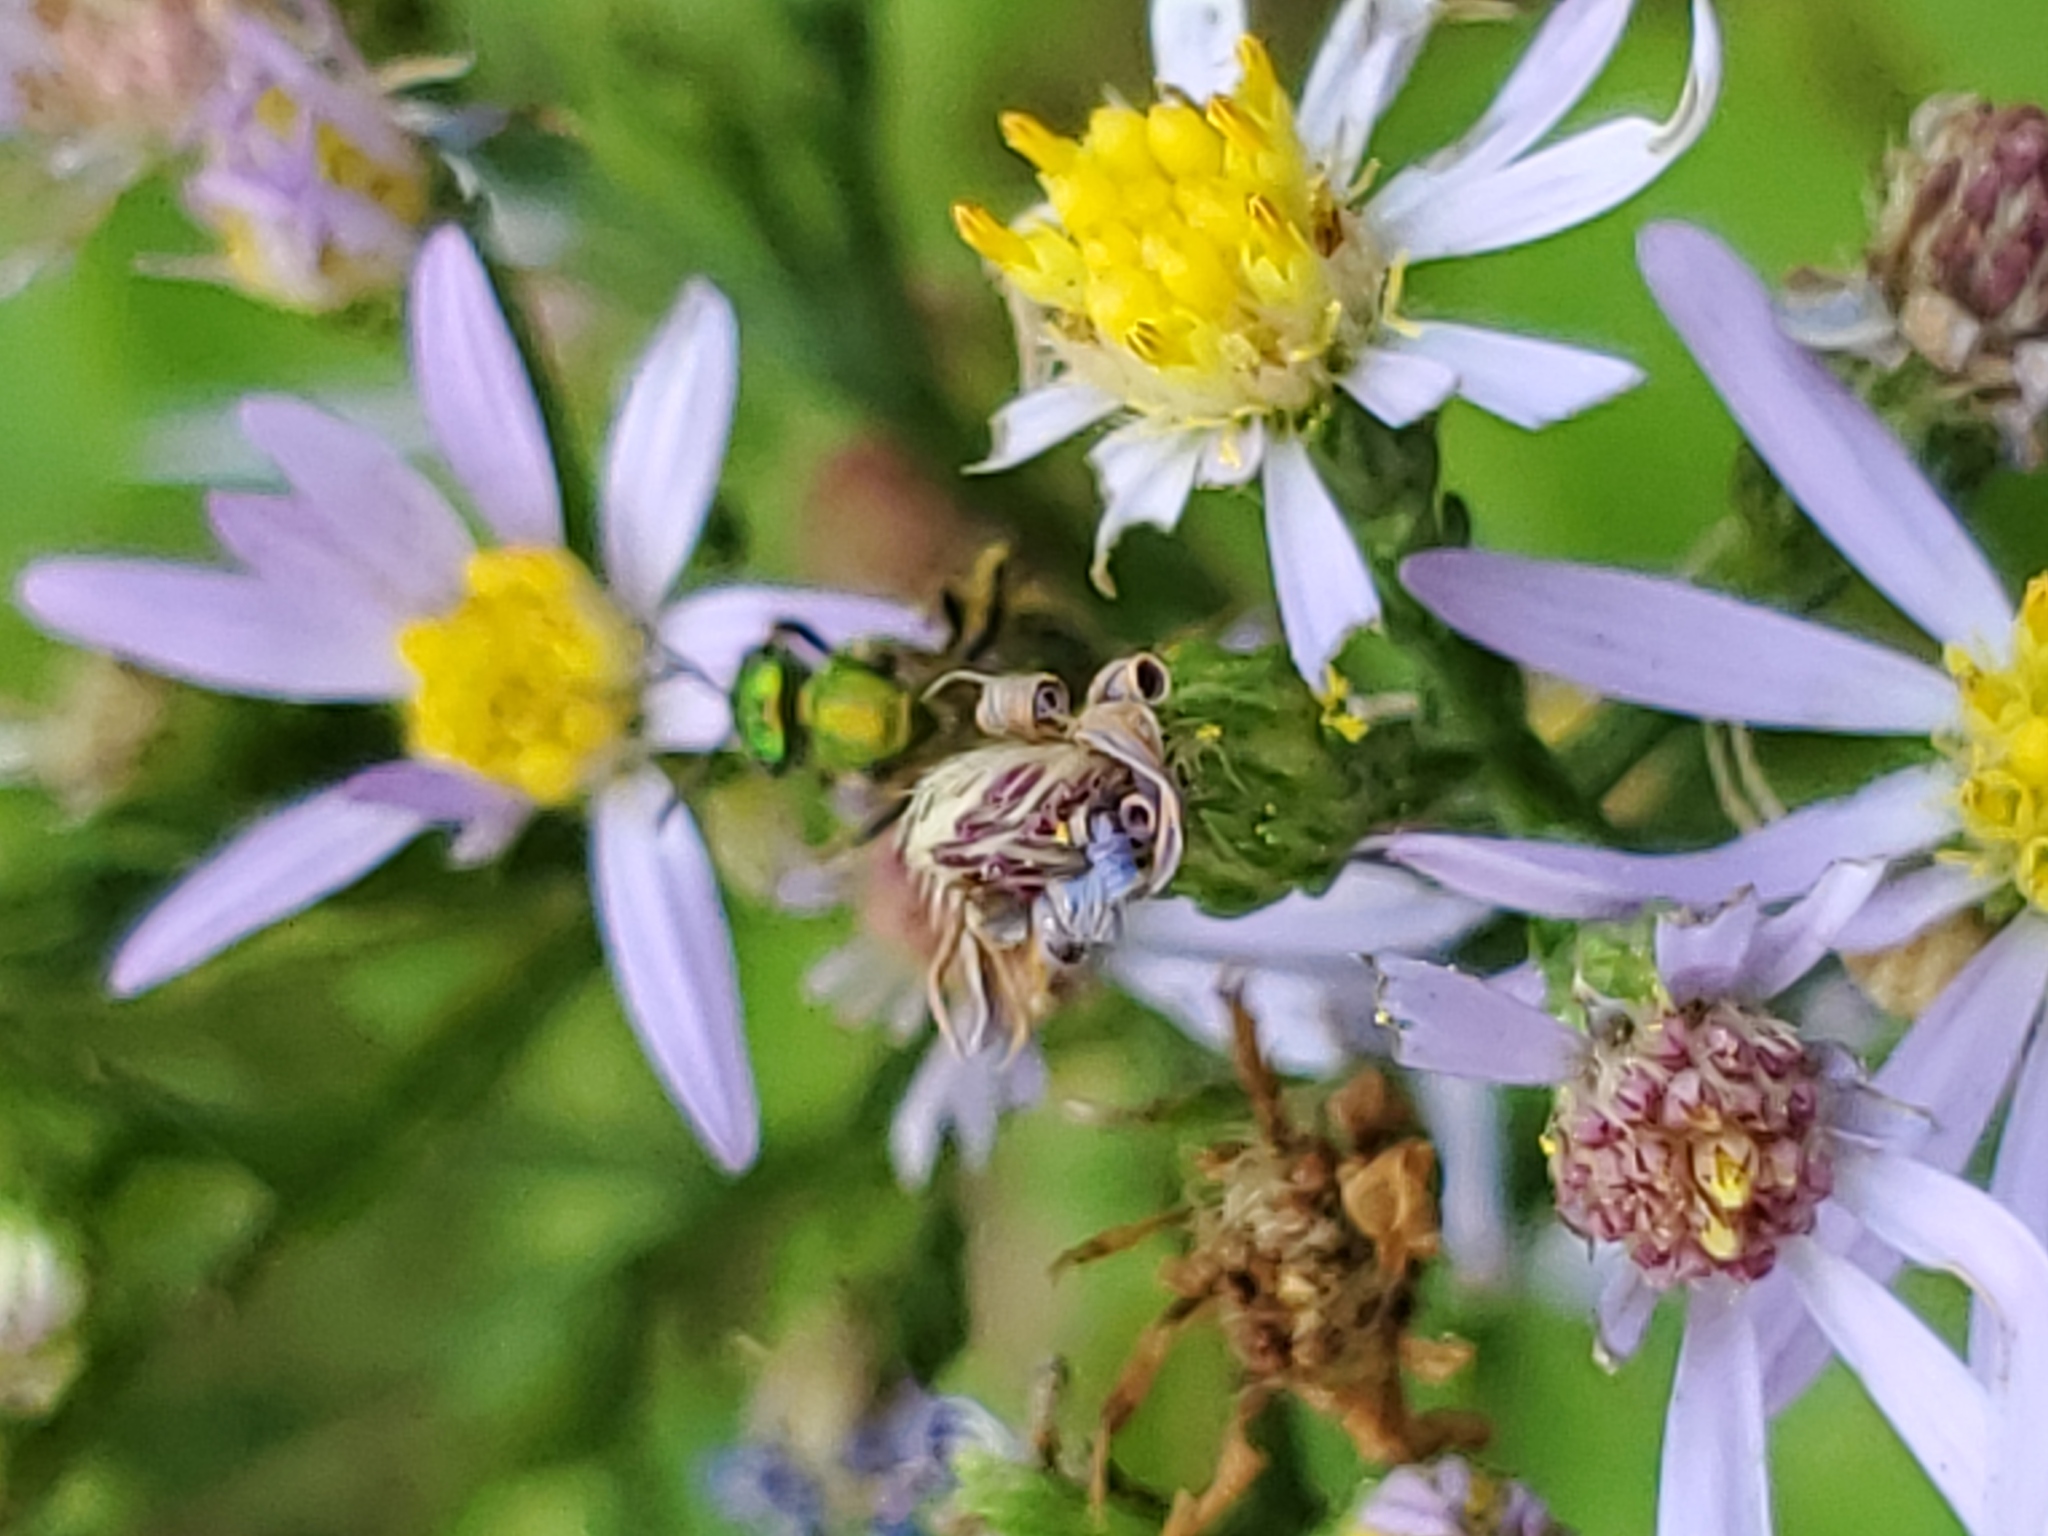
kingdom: Animalia
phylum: Arthropoda
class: Insecta
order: Hymenoptera
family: Halictidae
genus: Augochlorella
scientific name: Augochlorella aurata
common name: Golden sweat bee
